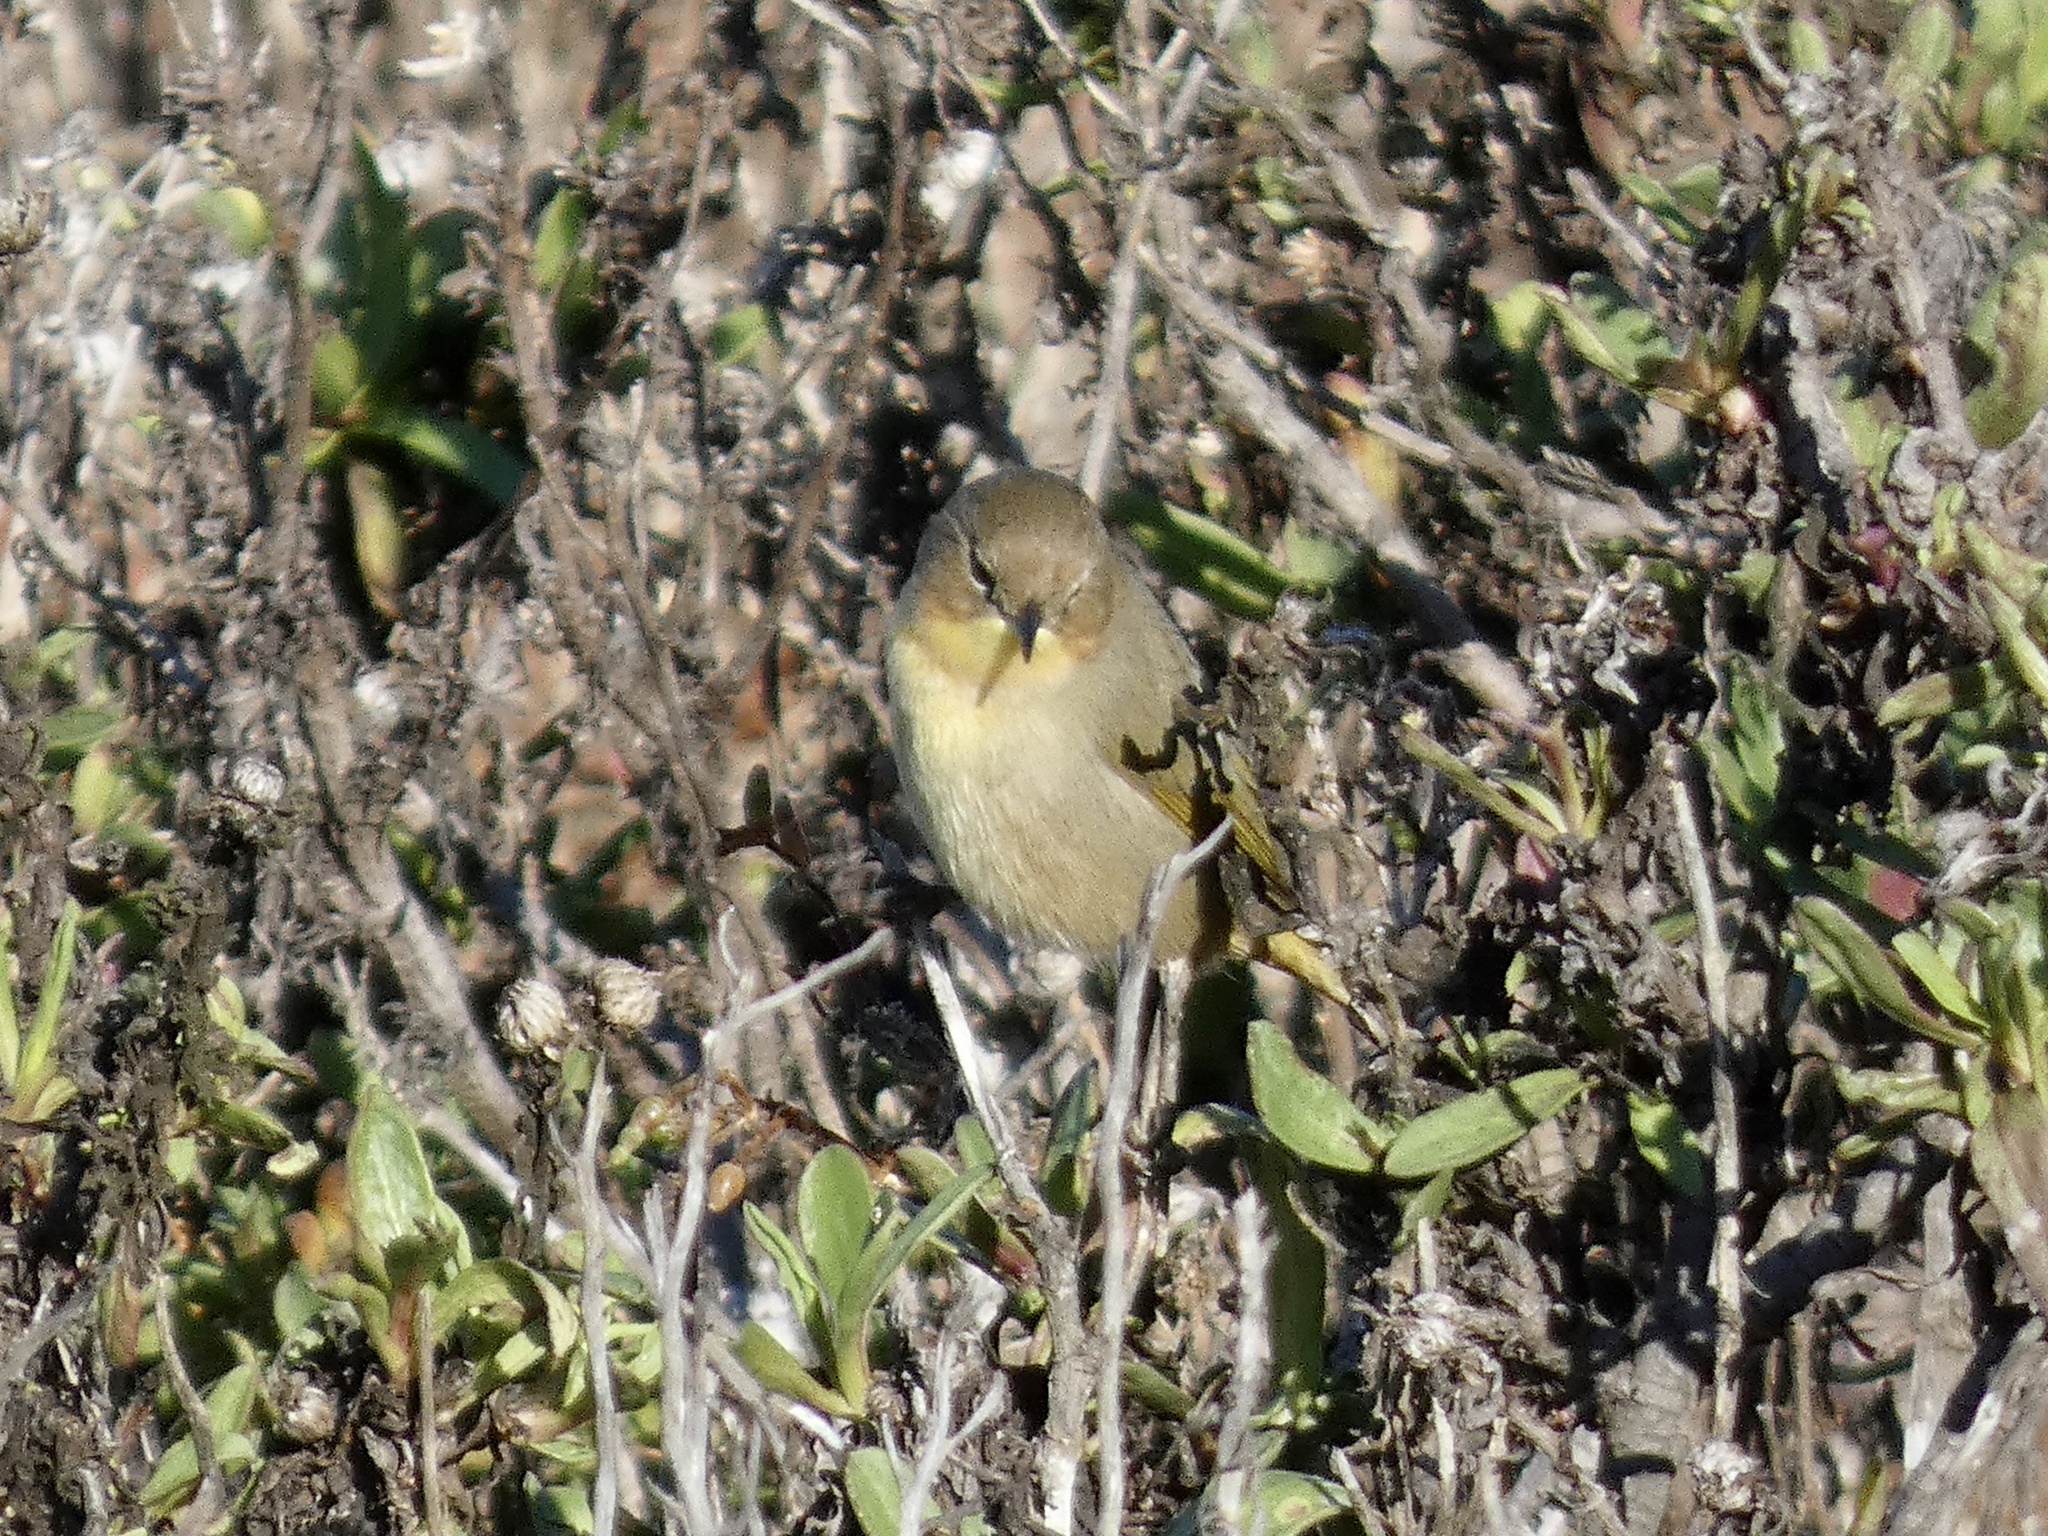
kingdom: Animalia
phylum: Chordata
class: Aves
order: Passeriformes
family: Parulidae
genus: Geothlypis
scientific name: Geothlypis trichas
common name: Common yellowthroat
